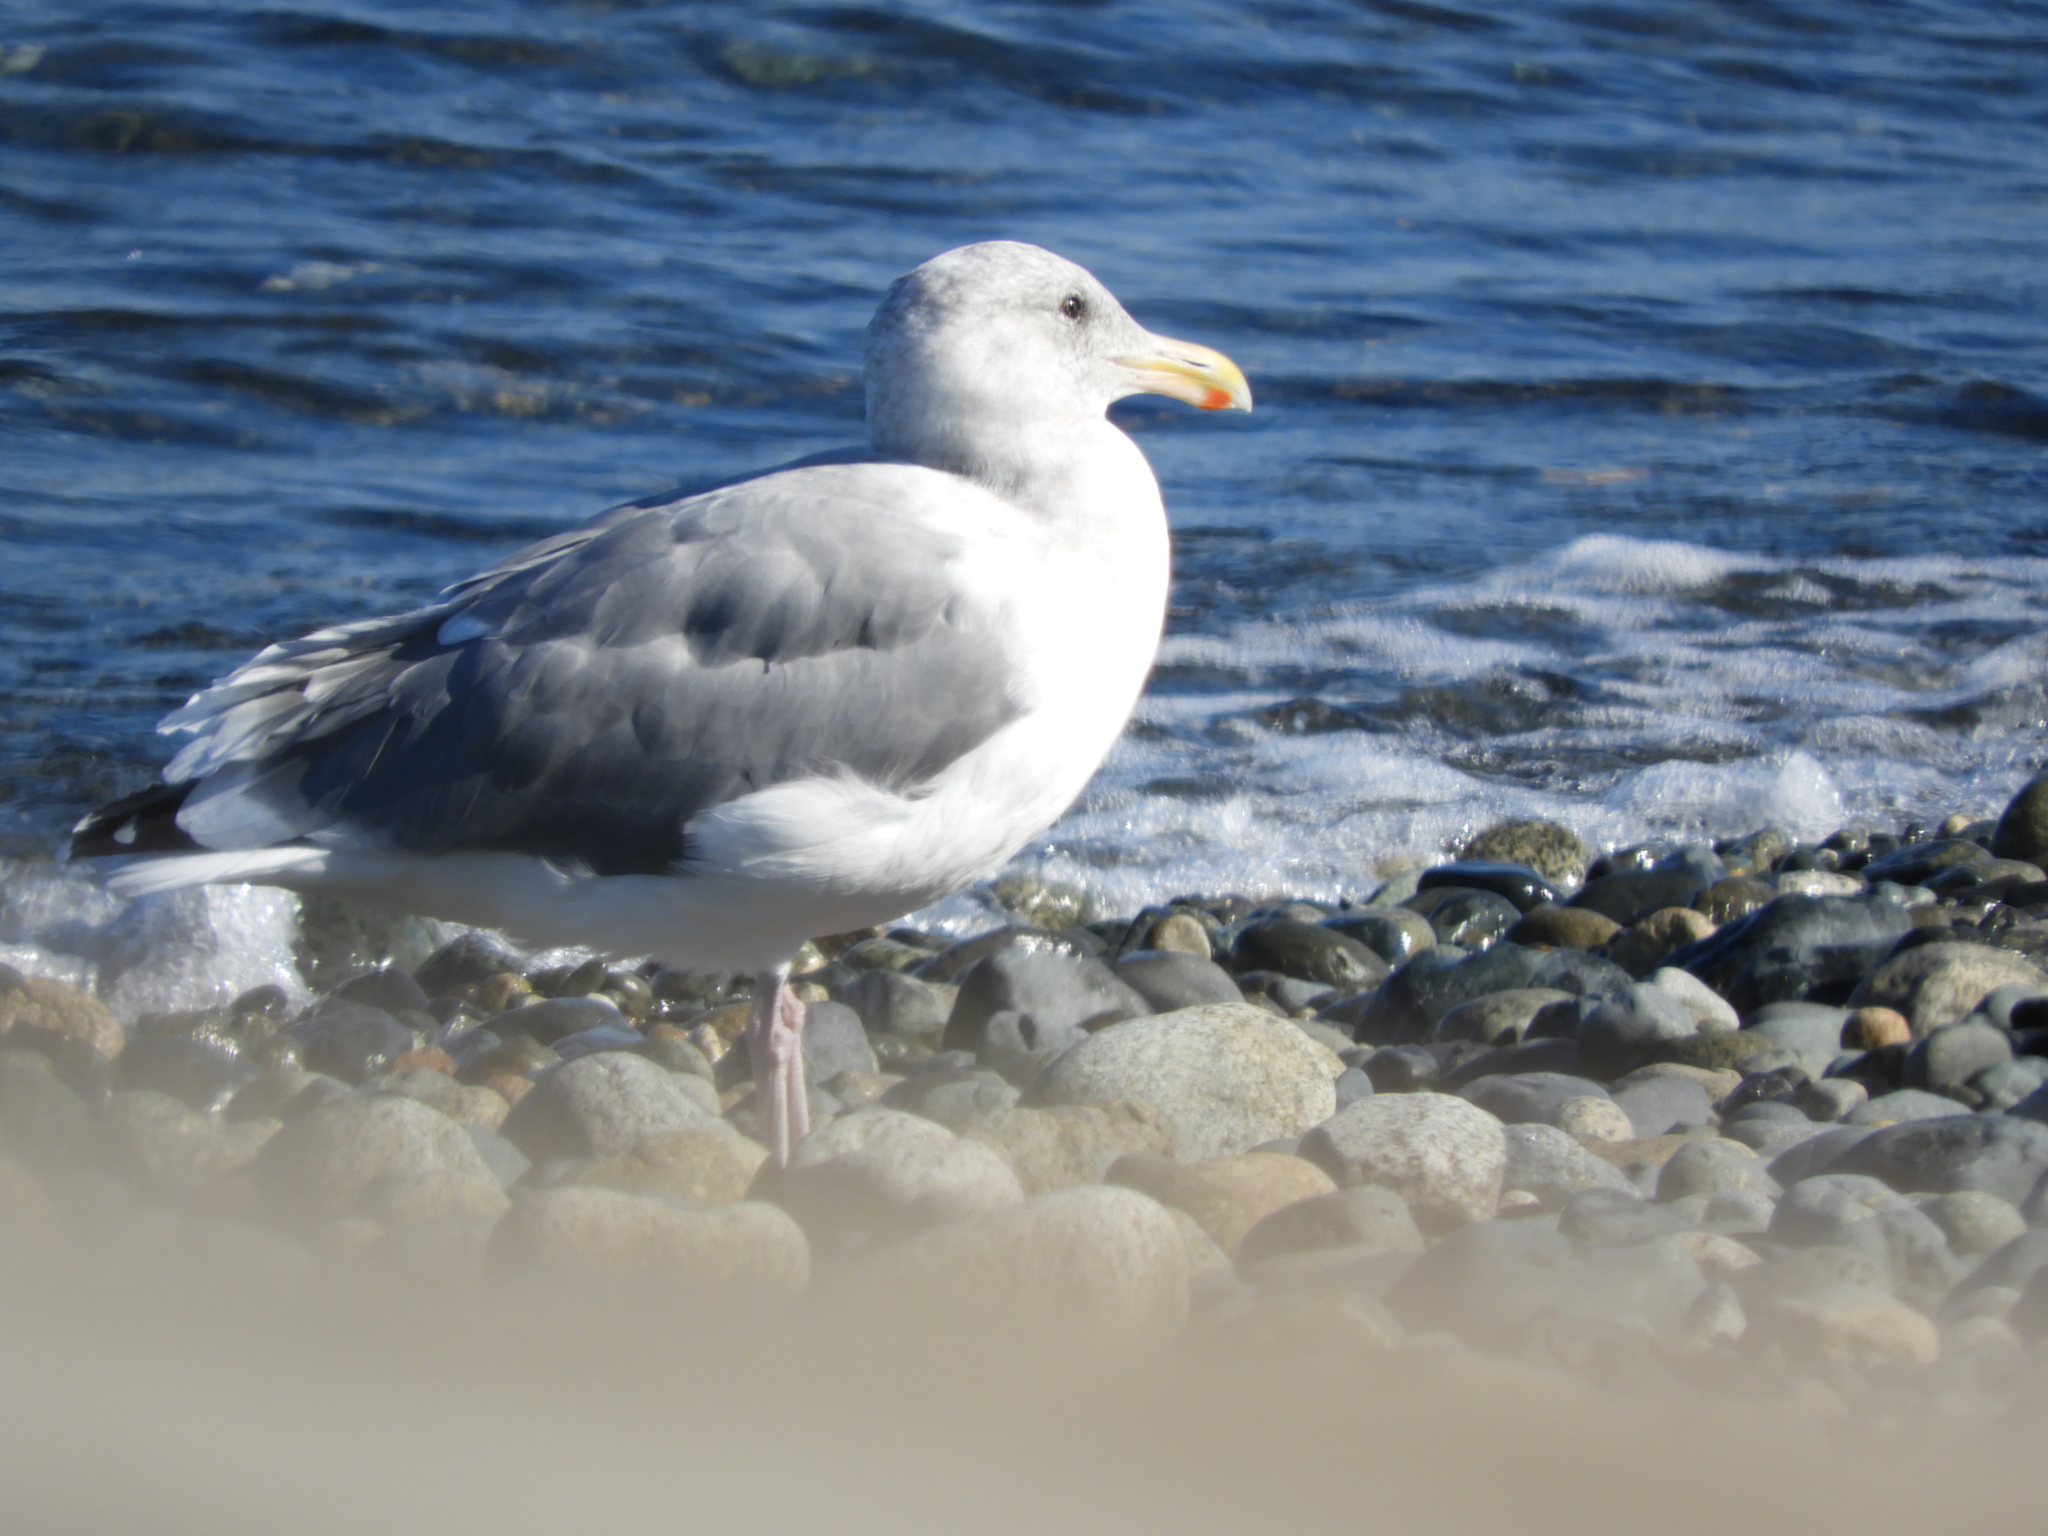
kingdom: Animalia
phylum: Chordata
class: Aves
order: Charadriiformes
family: Laridae
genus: Larus
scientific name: Larus
